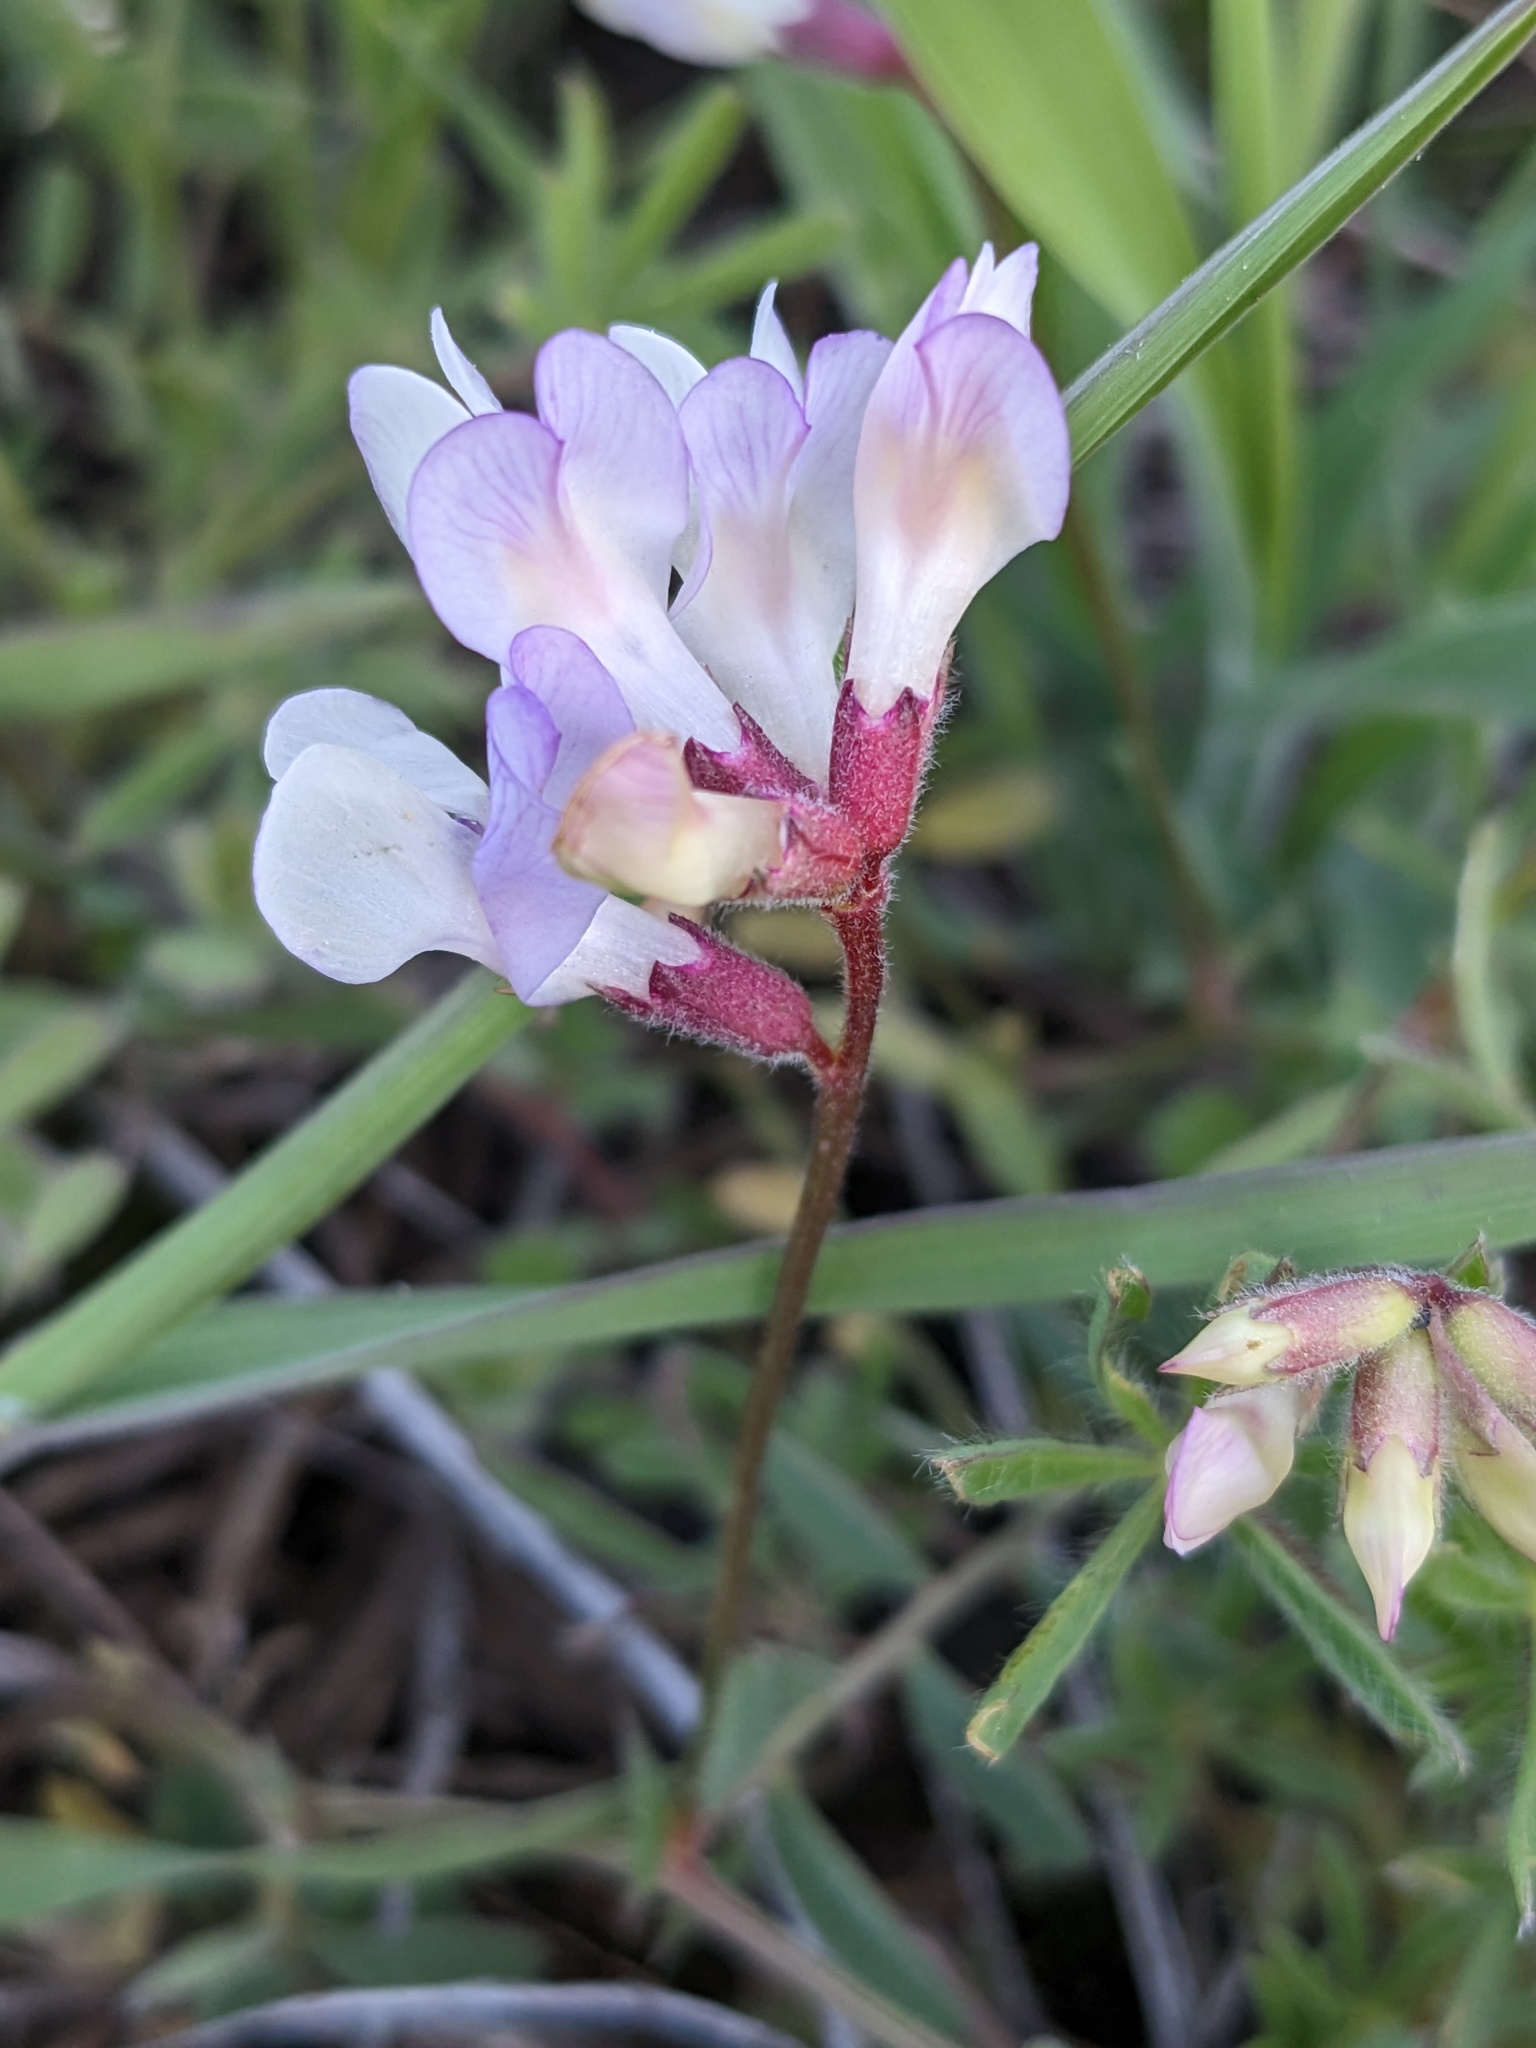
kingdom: Plantae
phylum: Tracheophyta
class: Magnoliopsida
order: Fabales
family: Fabaceae
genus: Vicia
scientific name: Vicia americana
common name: American vetch
